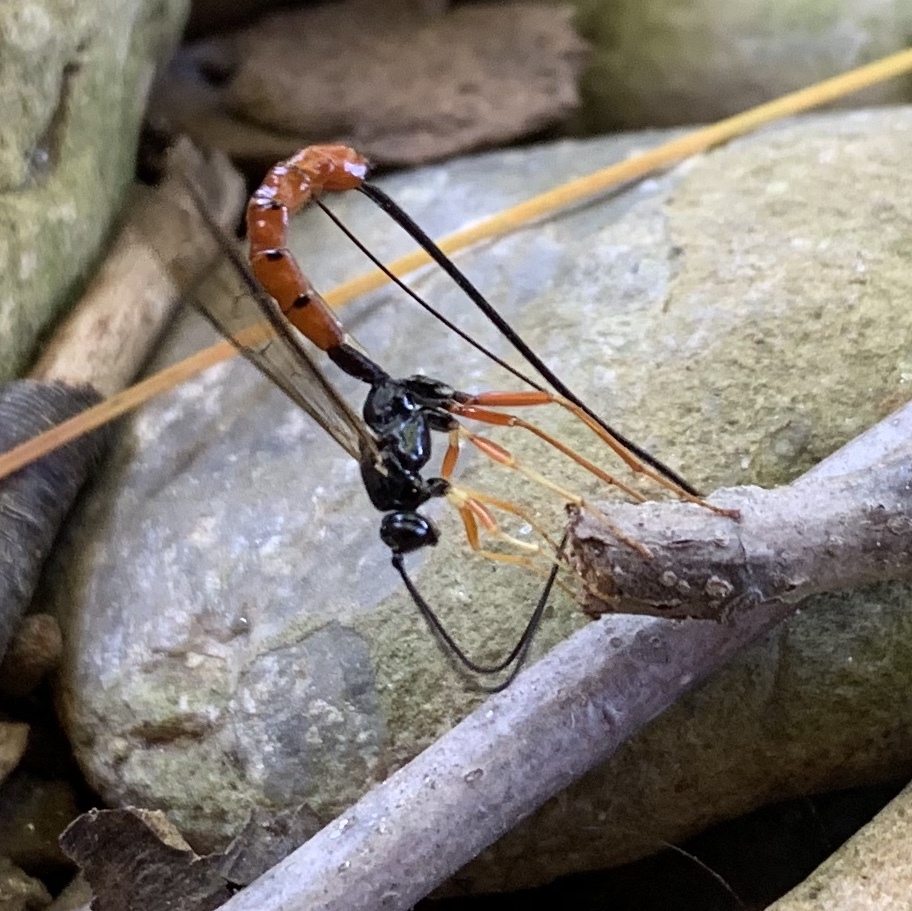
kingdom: Animalia
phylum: Arthropoda
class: Insecta
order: Hymenoptera
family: Ichneumonidae
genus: Dolichomitus
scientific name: Dolichomitus irritator
